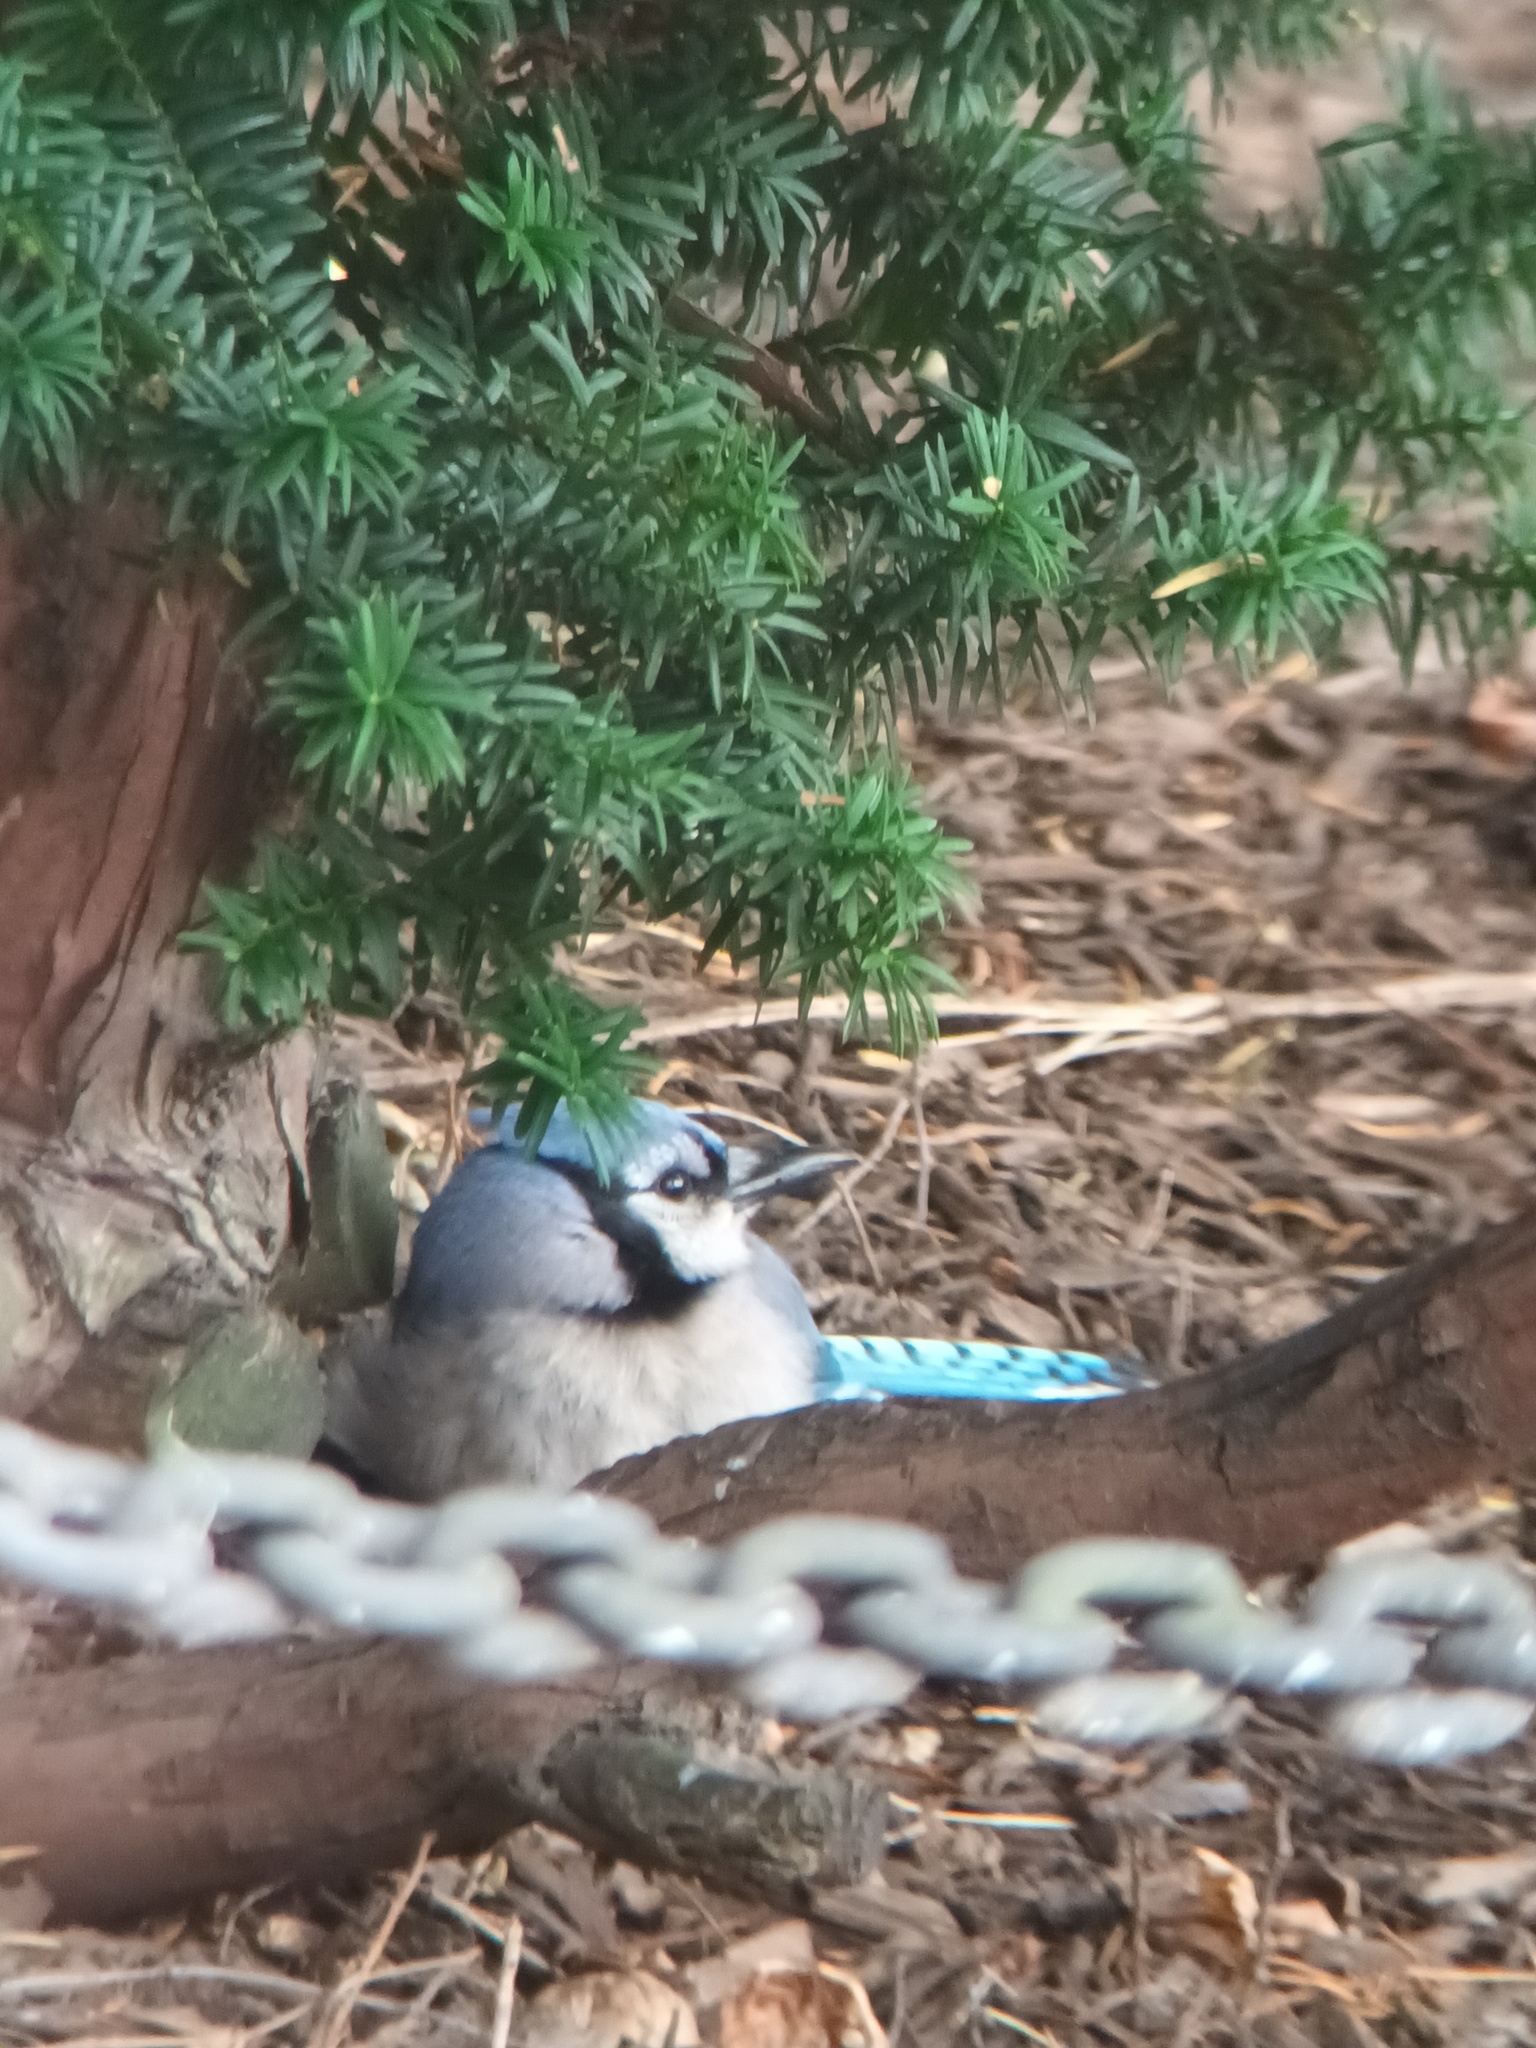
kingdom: Animalia
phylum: Chordata
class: Aves
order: Passeriformes
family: Corvidae
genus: Cyanocitta
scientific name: Cyanocitta cristata
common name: Blue jay
